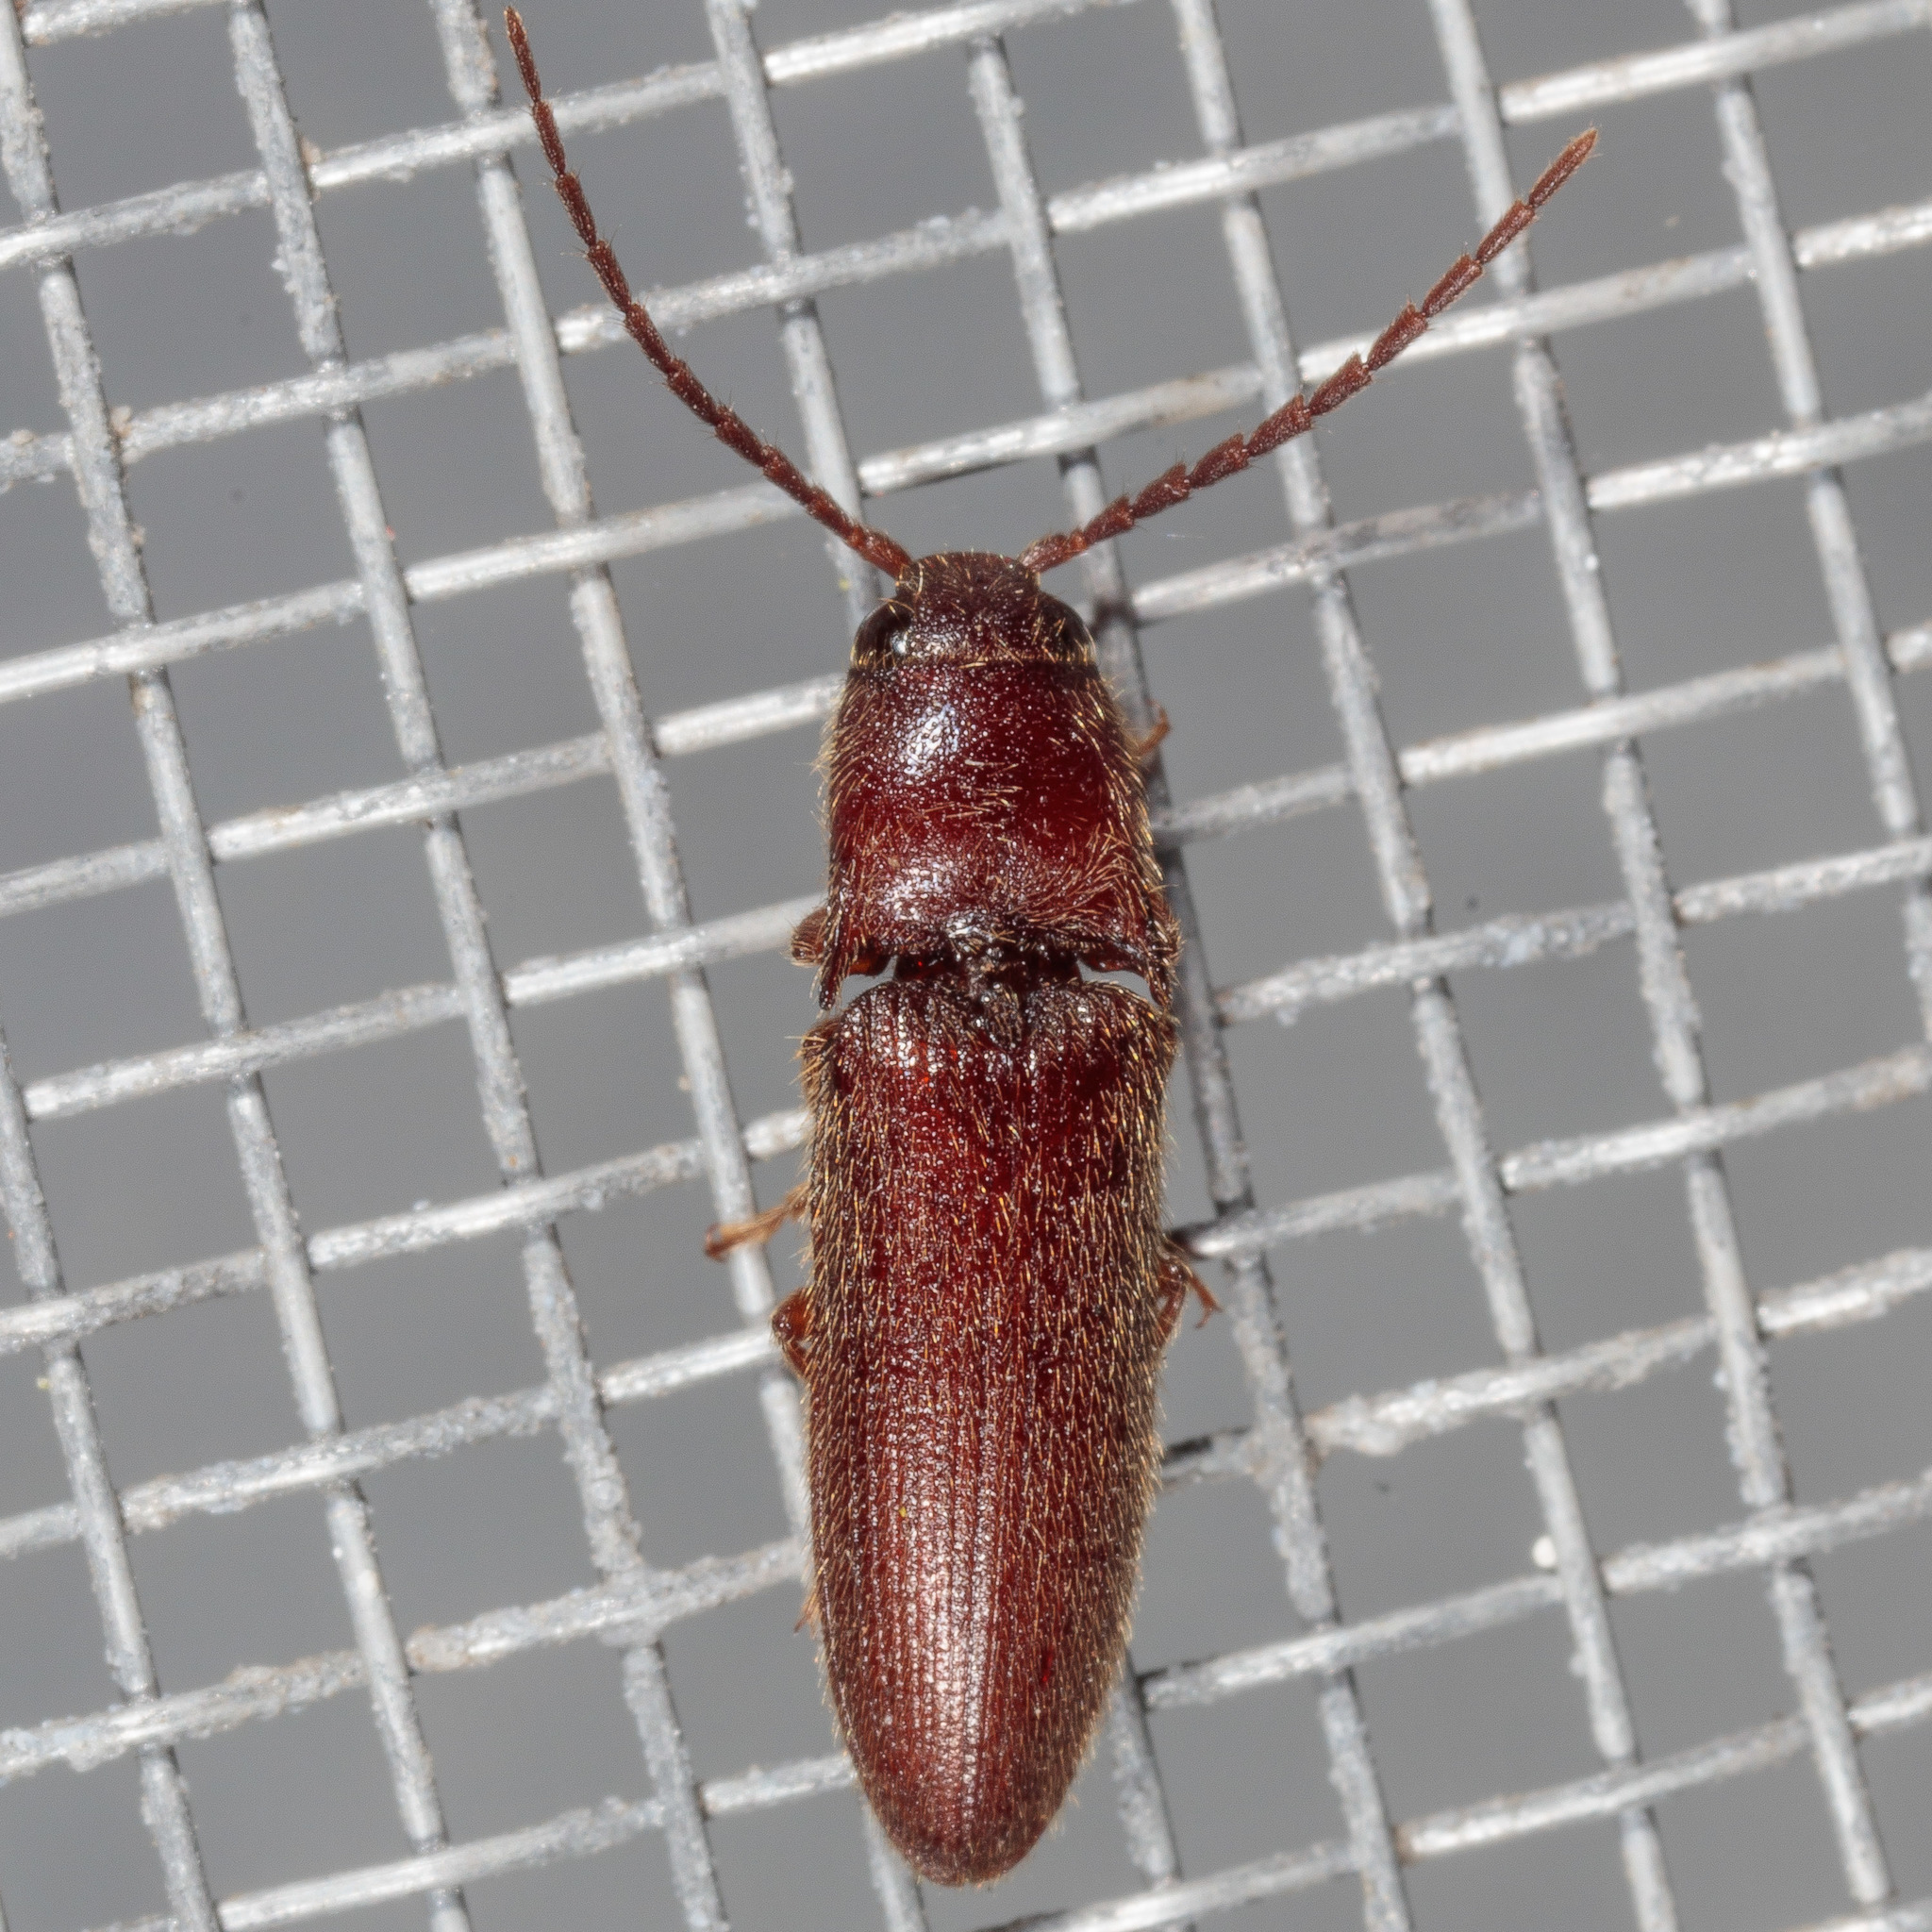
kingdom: Animalia
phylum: Arthropoda
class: Insecta
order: Coleoptera
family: Elateridae
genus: Dipropus
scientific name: Dipropus
